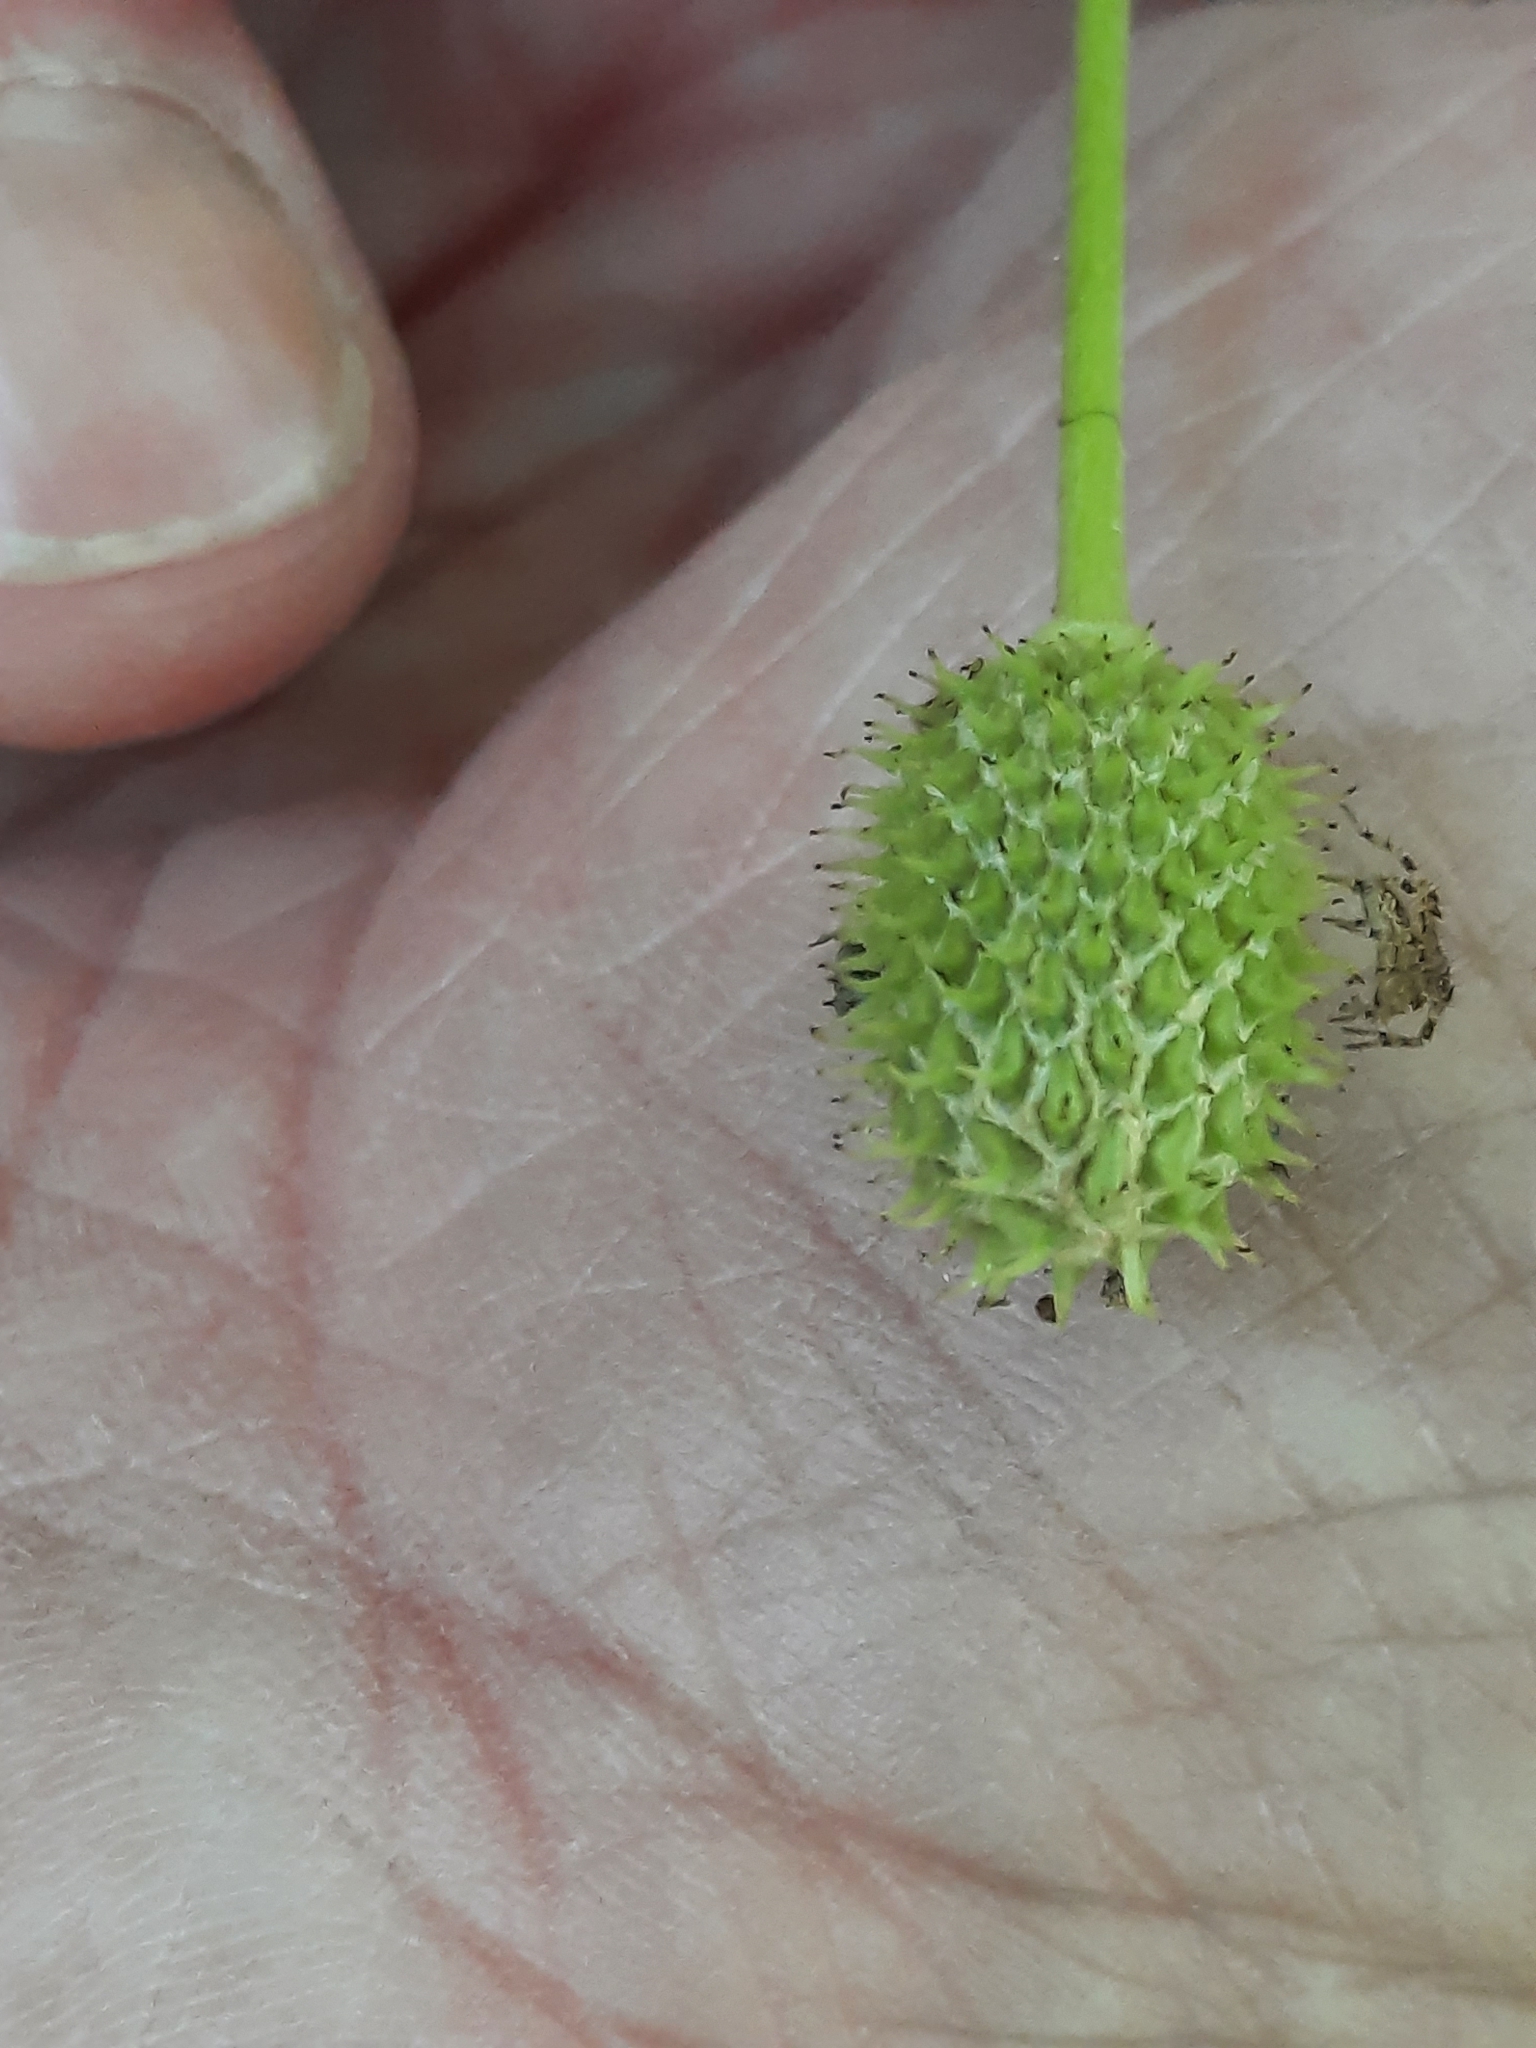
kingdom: Plantae
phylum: Tracheophyta
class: Magnoliopsida
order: Ranunculales
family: Ranunculaceae
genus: Anemone
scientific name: Anemone virginiana
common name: Tall anemone
